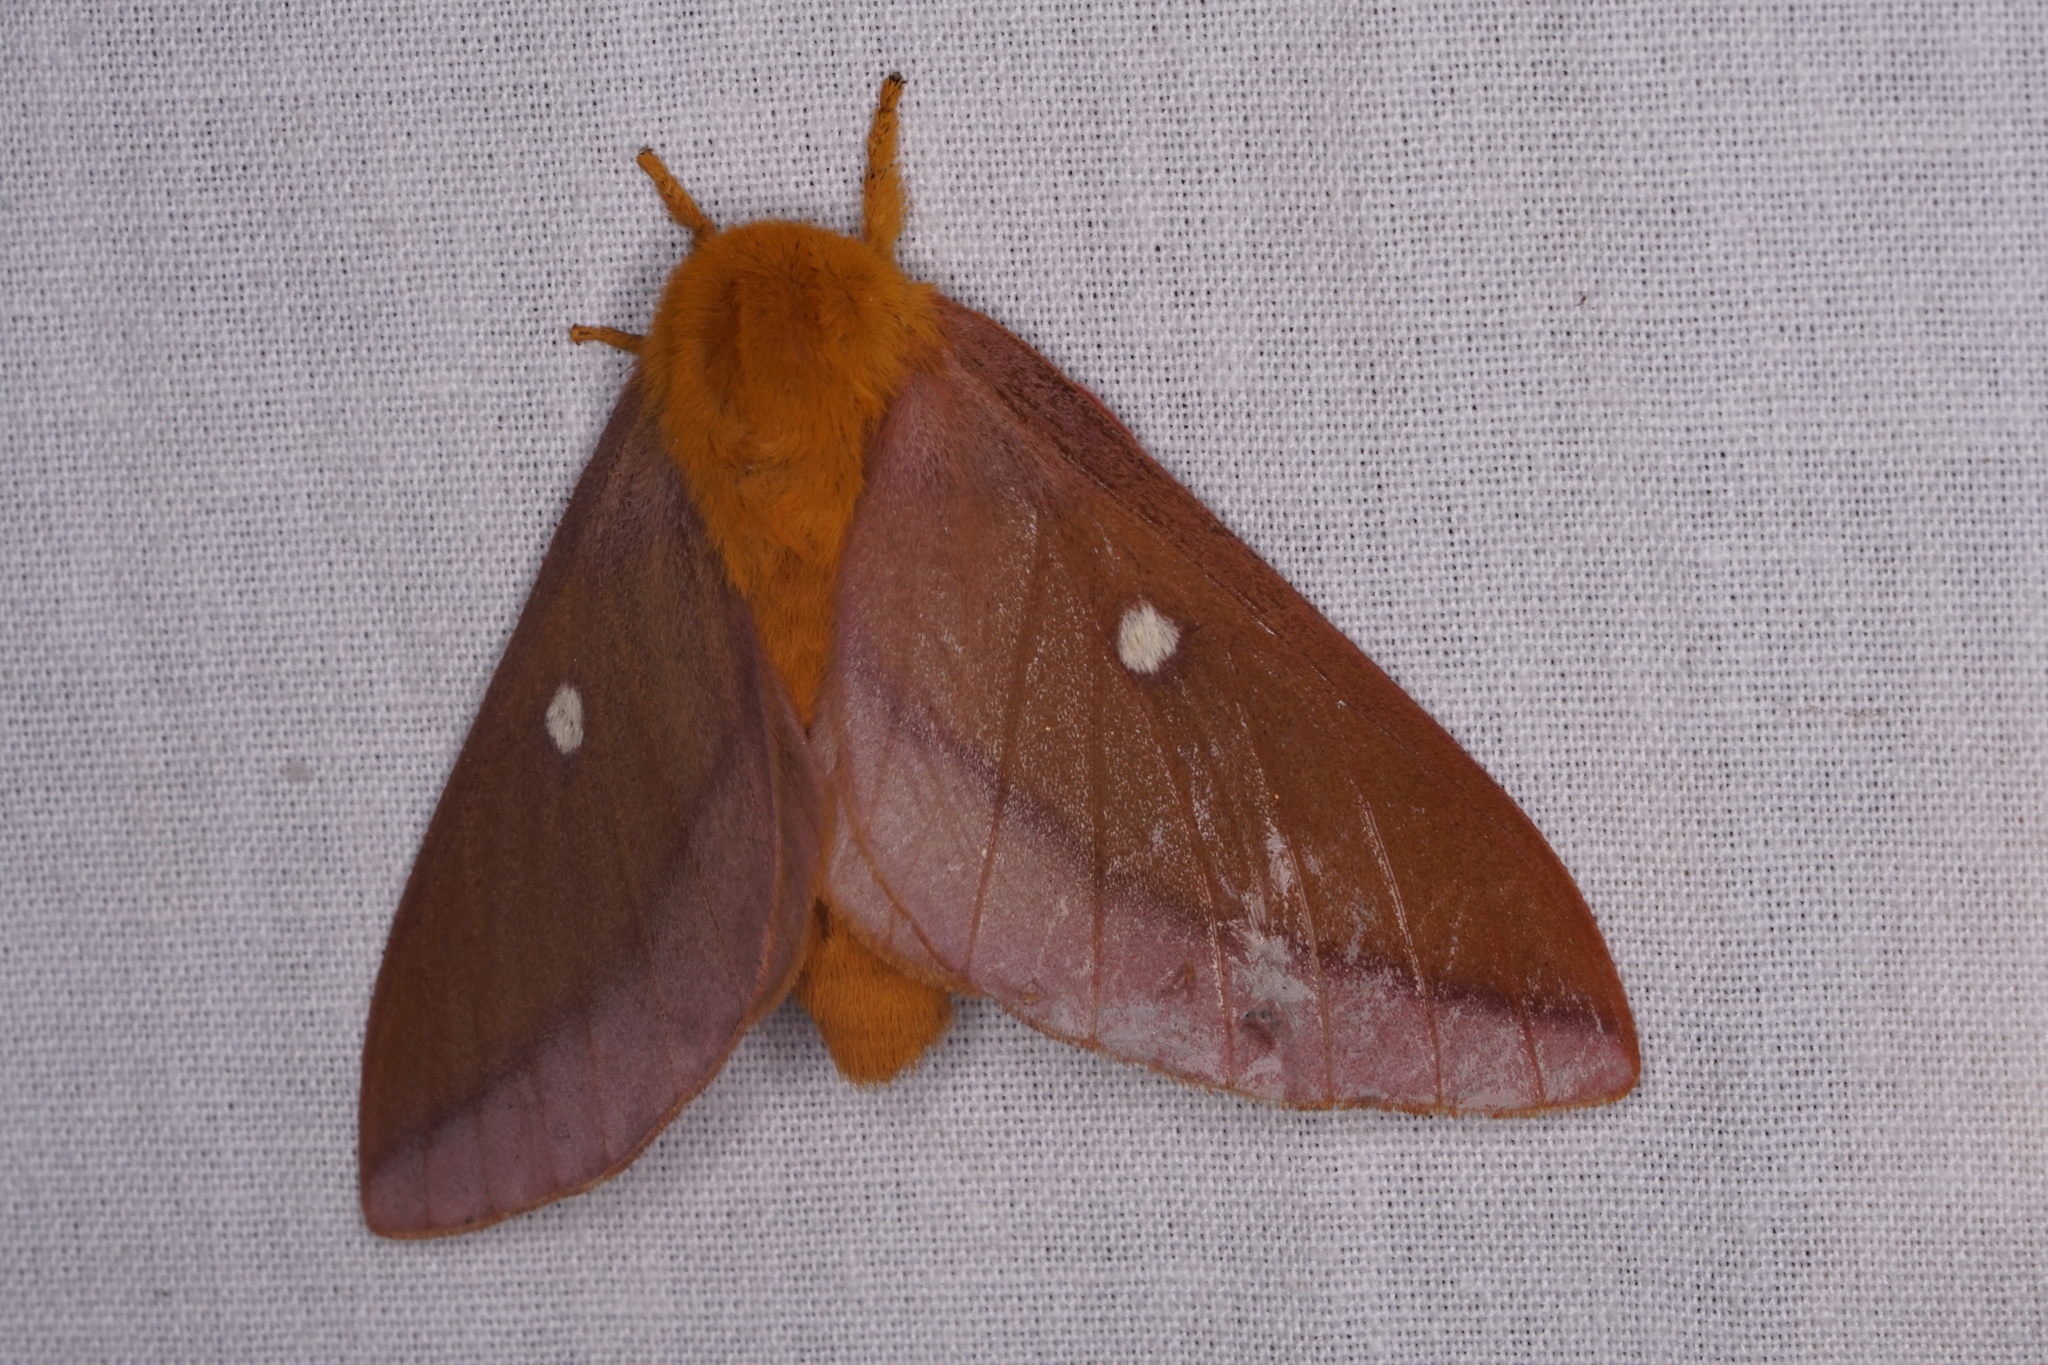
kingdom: Animalia
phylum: Arthropoda
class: Insecta
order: Lepidoptera
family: Saturniidae
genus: Anisota
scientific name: Anisota virginiensis
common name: Pink striped oakworm moth
